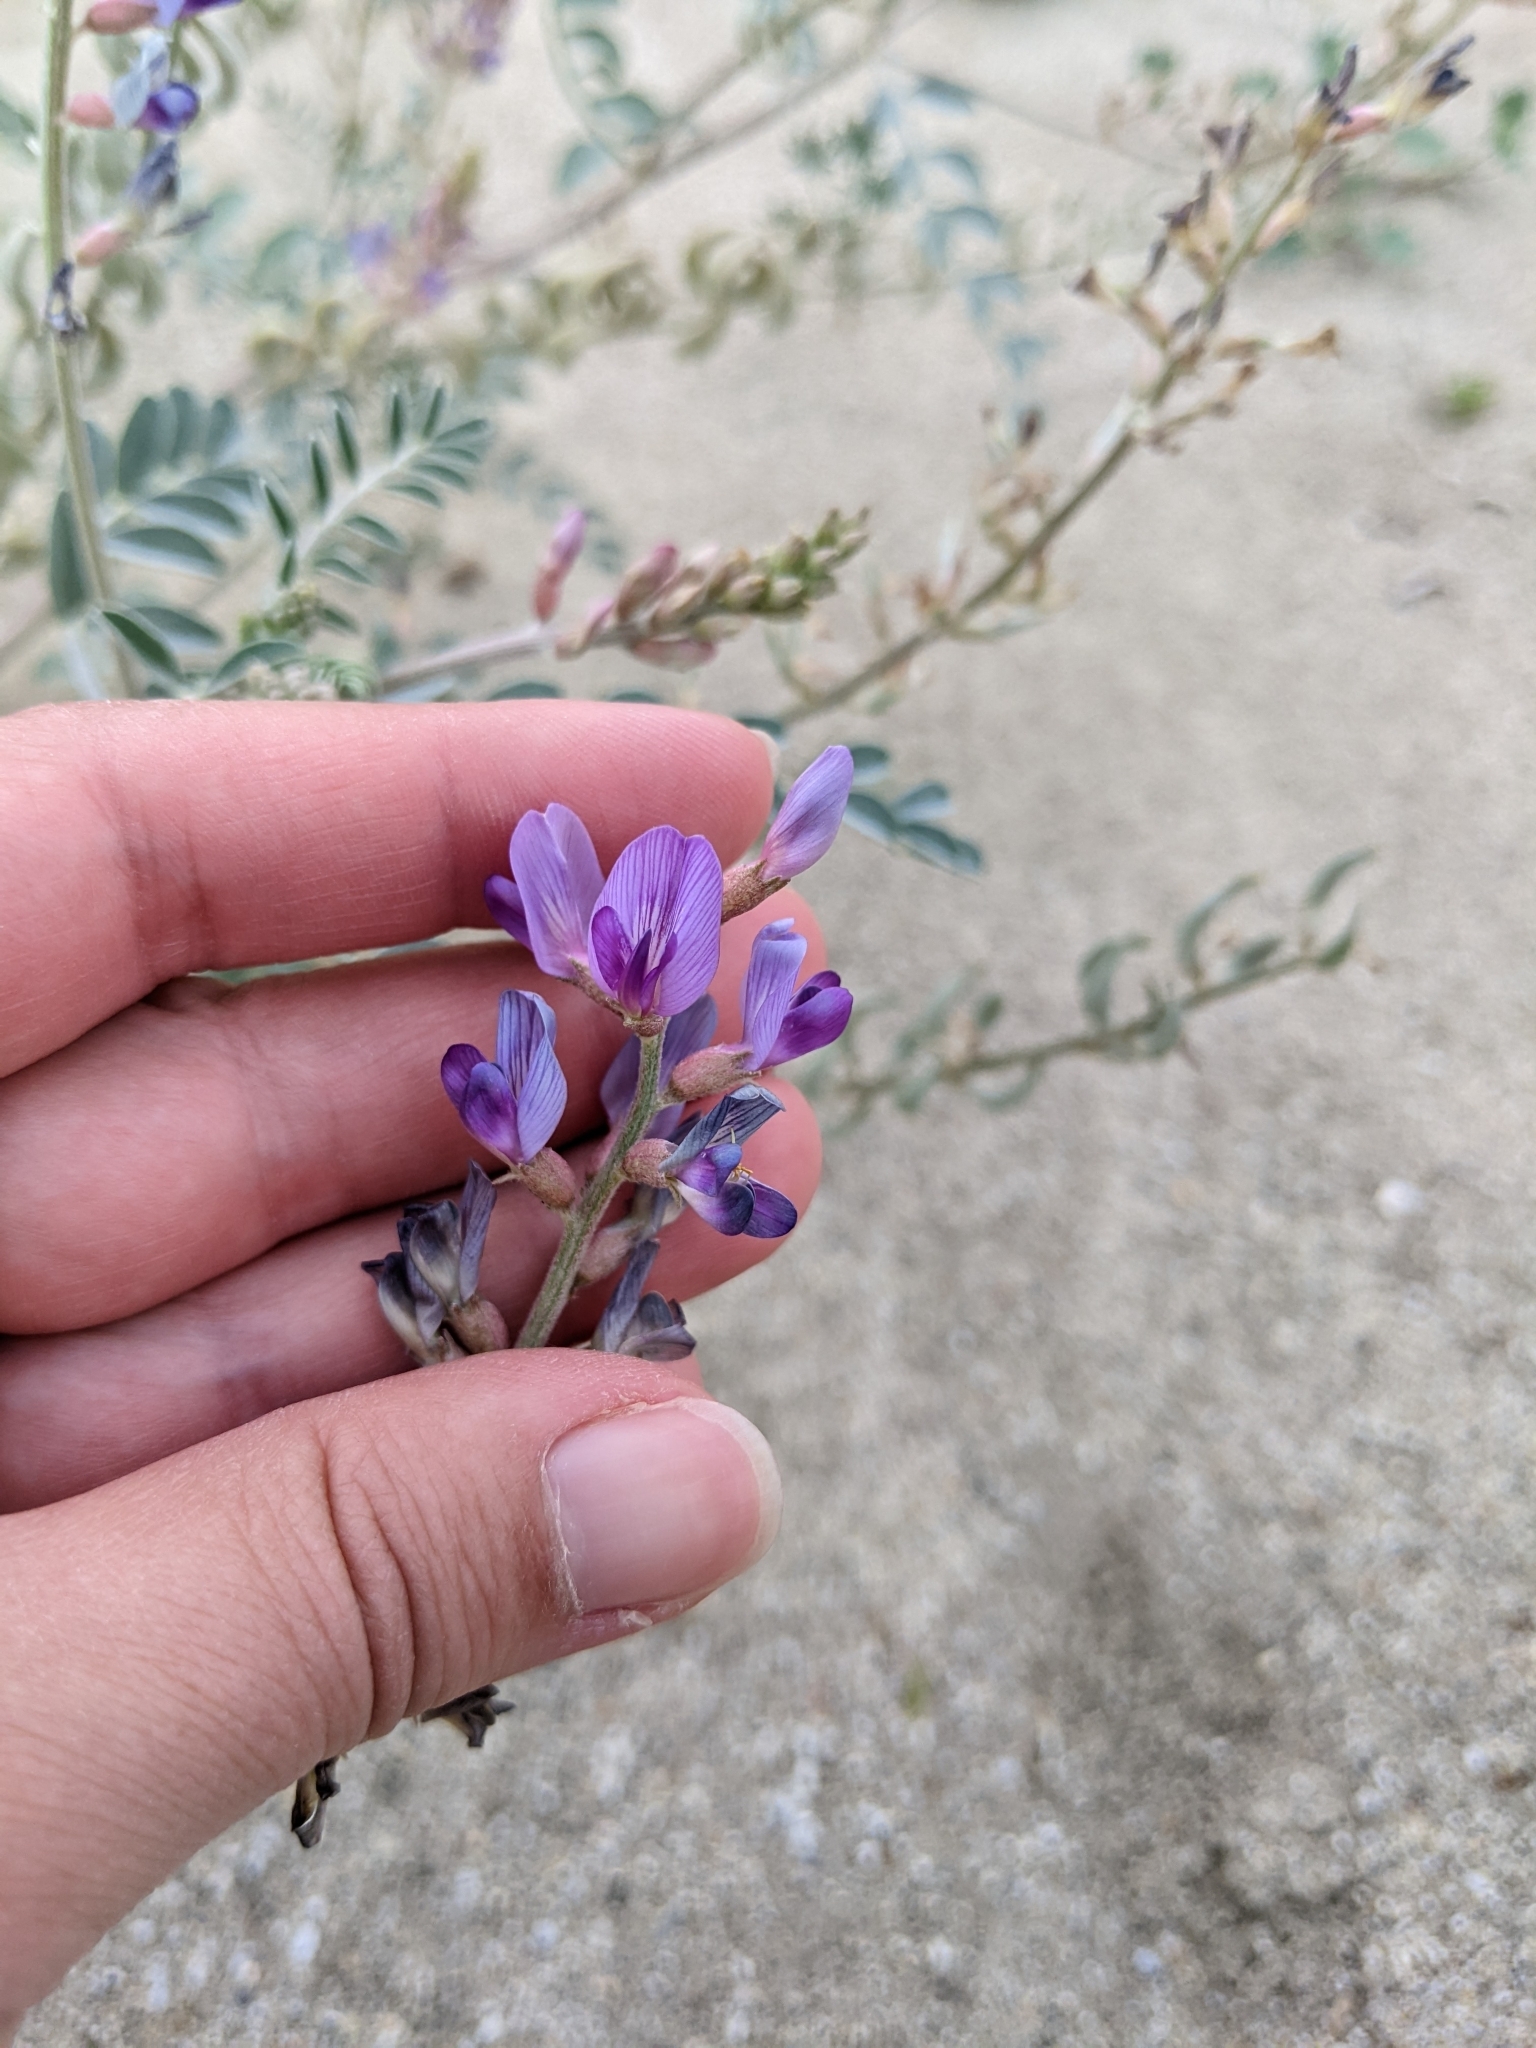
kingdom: Plantae
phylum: Tracheophyta
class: Magnoliopsida
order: Fabales
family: Fabaceae
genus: Astragalus
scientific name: Astragalus lentiginosus
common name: Freckled milkvetch
